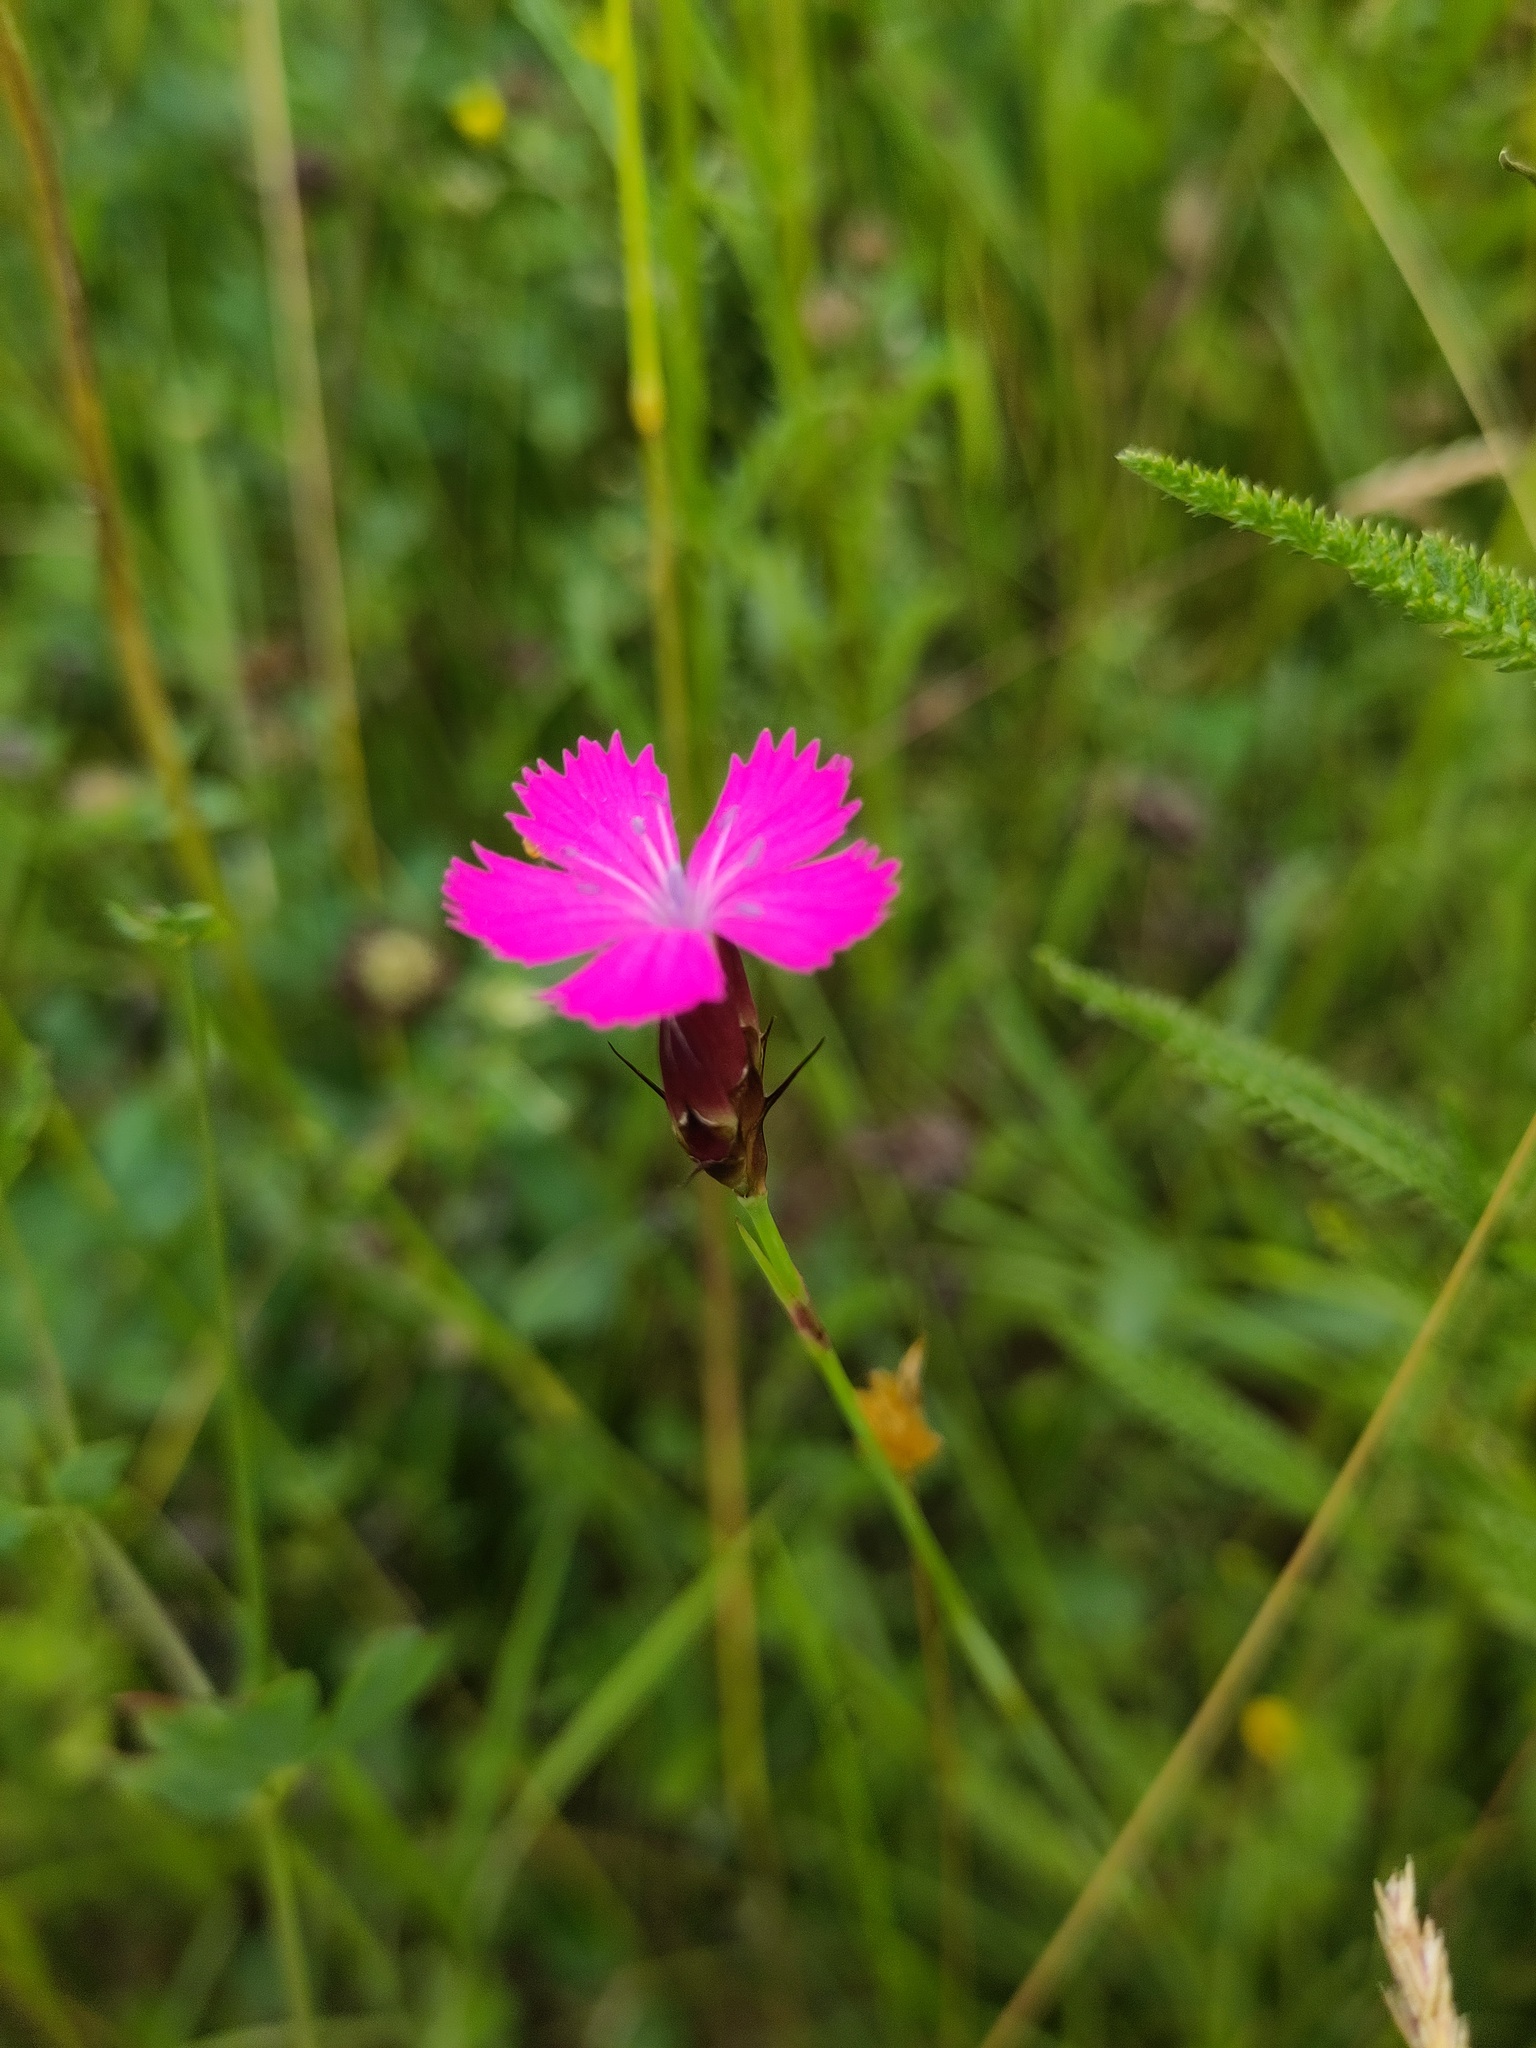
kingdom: Plantae
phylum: Tracheophyta
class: Magnoliopsida
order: Caryophyllales
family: Caryophyllaceae
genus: Dianthus
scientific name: Dianthus carthusianorum
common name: Carthusian pink
